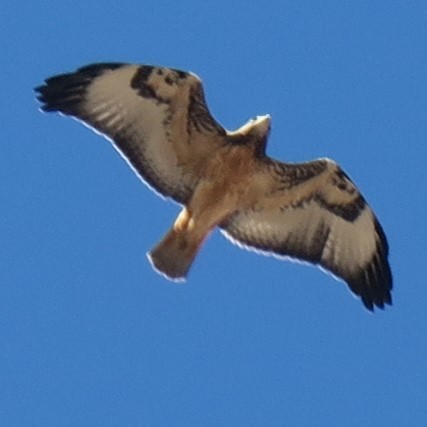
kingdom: Animalia
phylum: Chordata
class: Aves
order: Accipitriformes
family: Accipitridae
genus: Buteo
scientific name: Buteo rufofuscus
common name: Jackal buzzard
